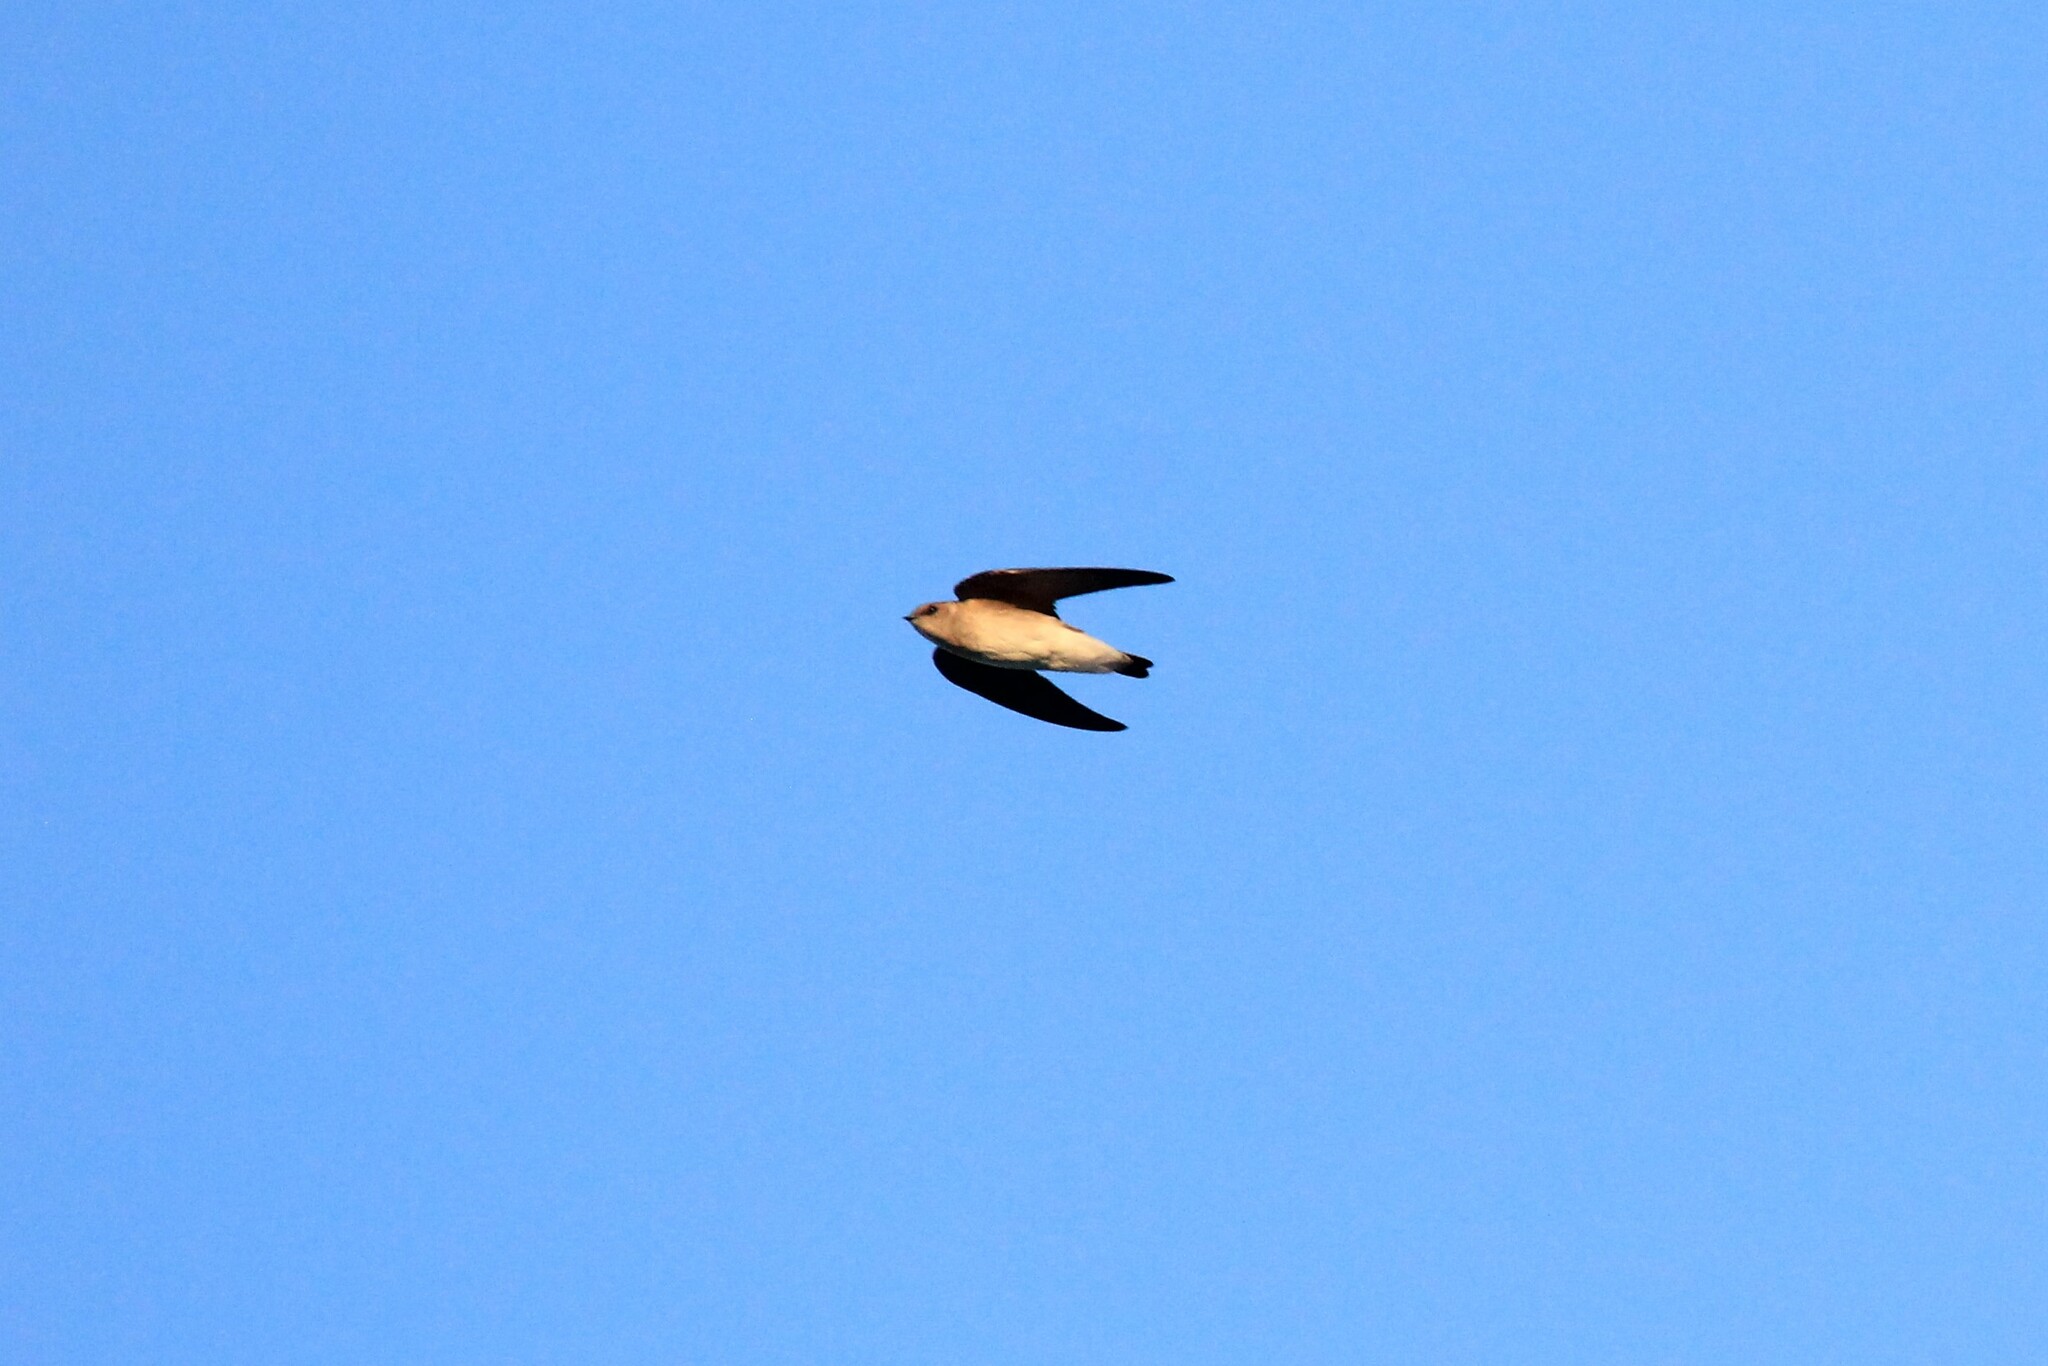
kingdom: Animalia
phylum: Chordata
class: Aves
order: Passeriformes
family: Hirundinidae
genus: Stelgidopteryx
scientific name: Stelgidopteryx serripennis
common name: Northern rough-winged swallow
